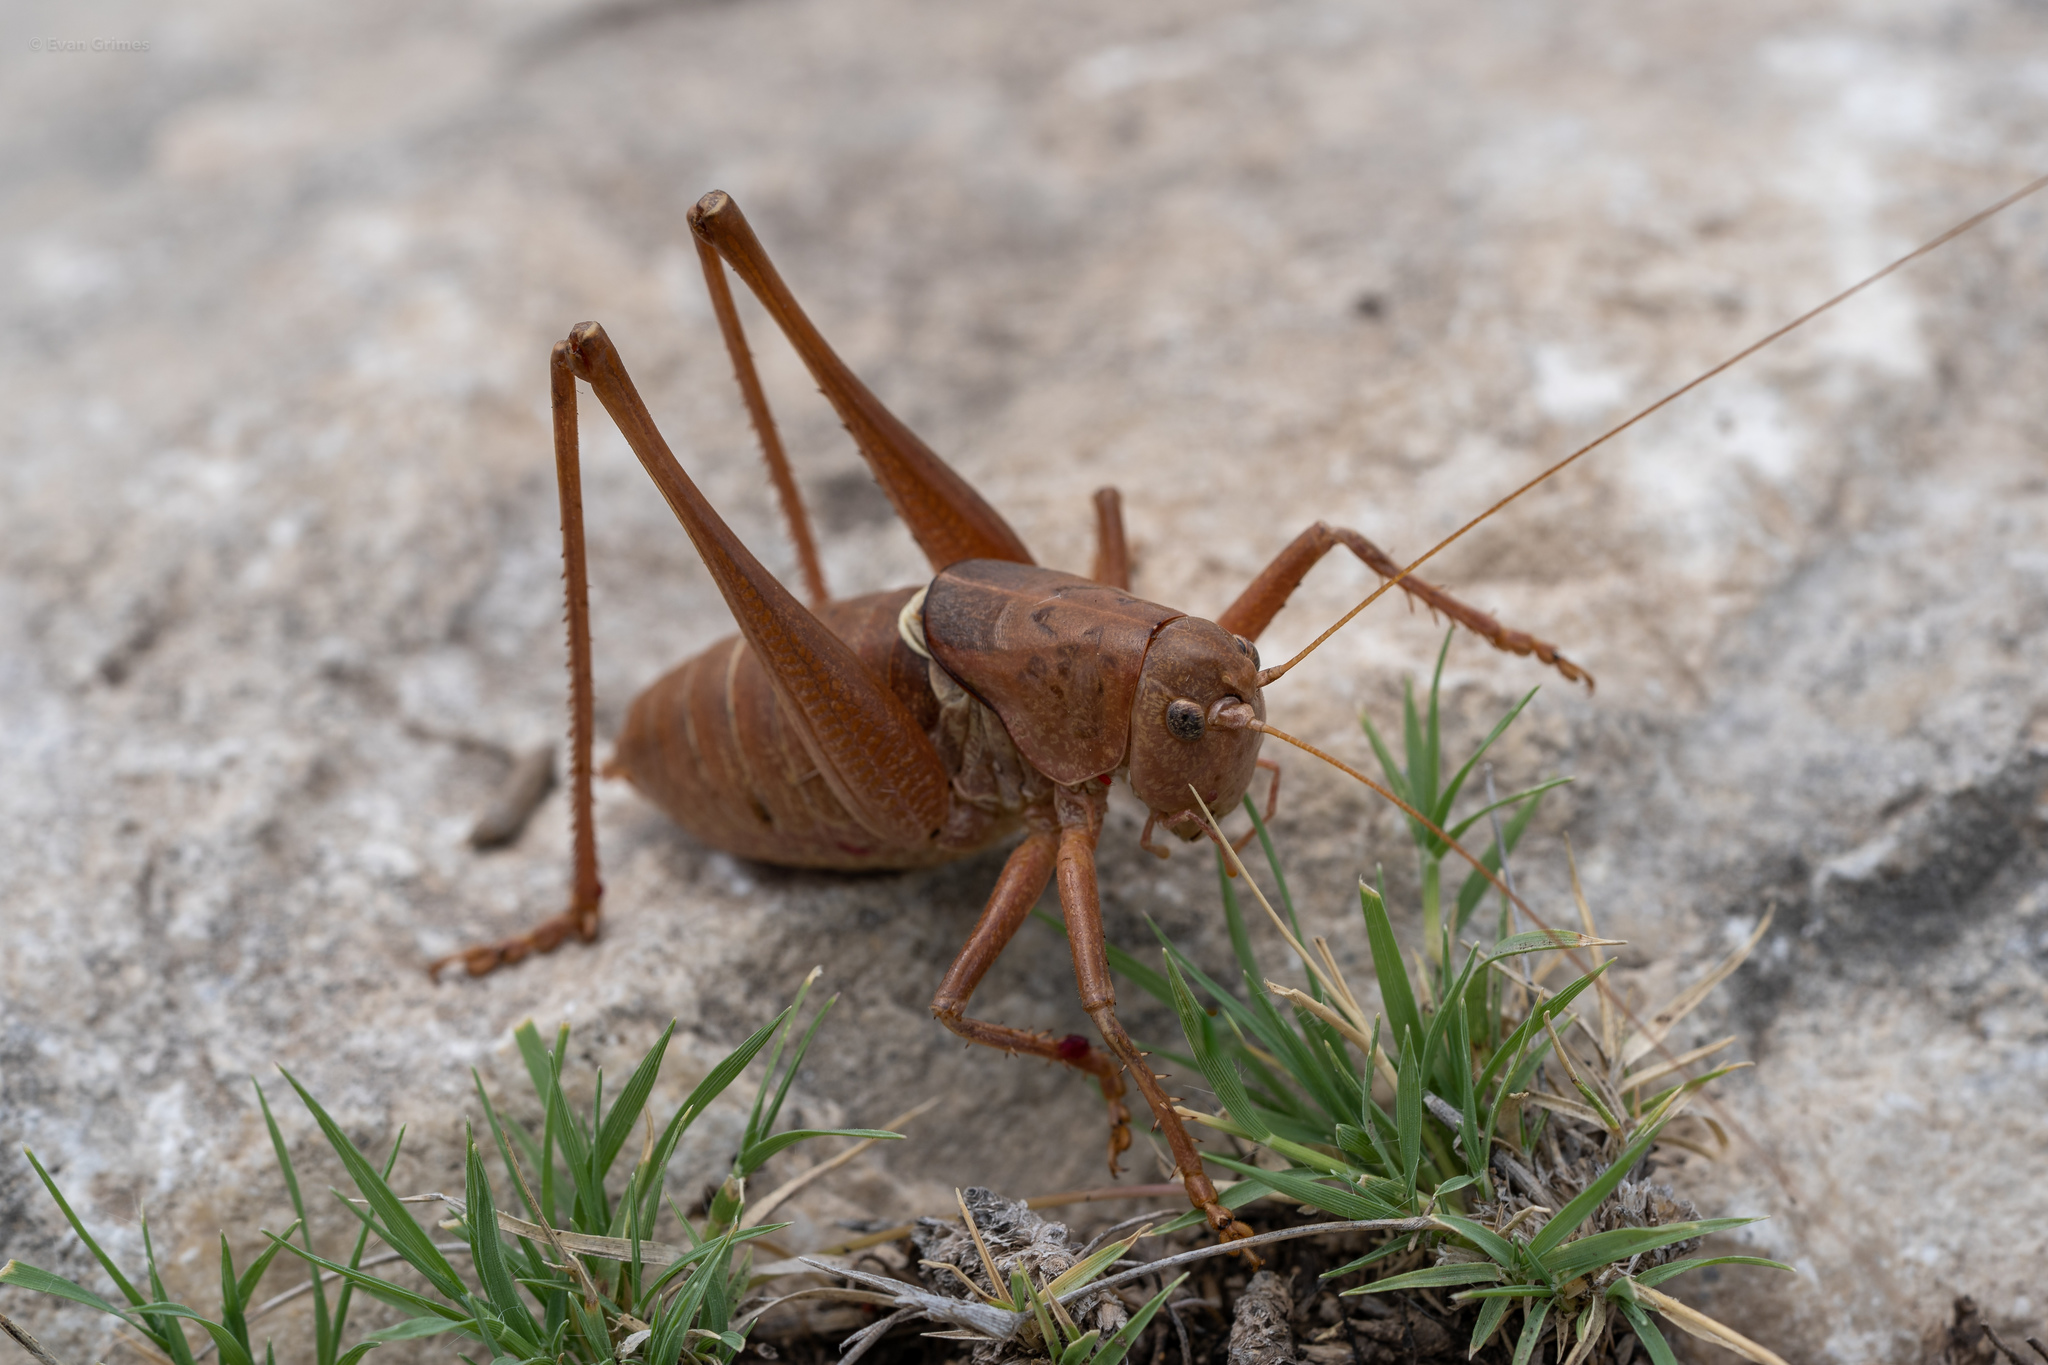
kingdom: Animalia
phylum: Arthropoda
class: Insecta
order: Orthoptera
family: Tettigoniidae
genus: Pediodectes
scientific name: Pediodectes haldemanii
